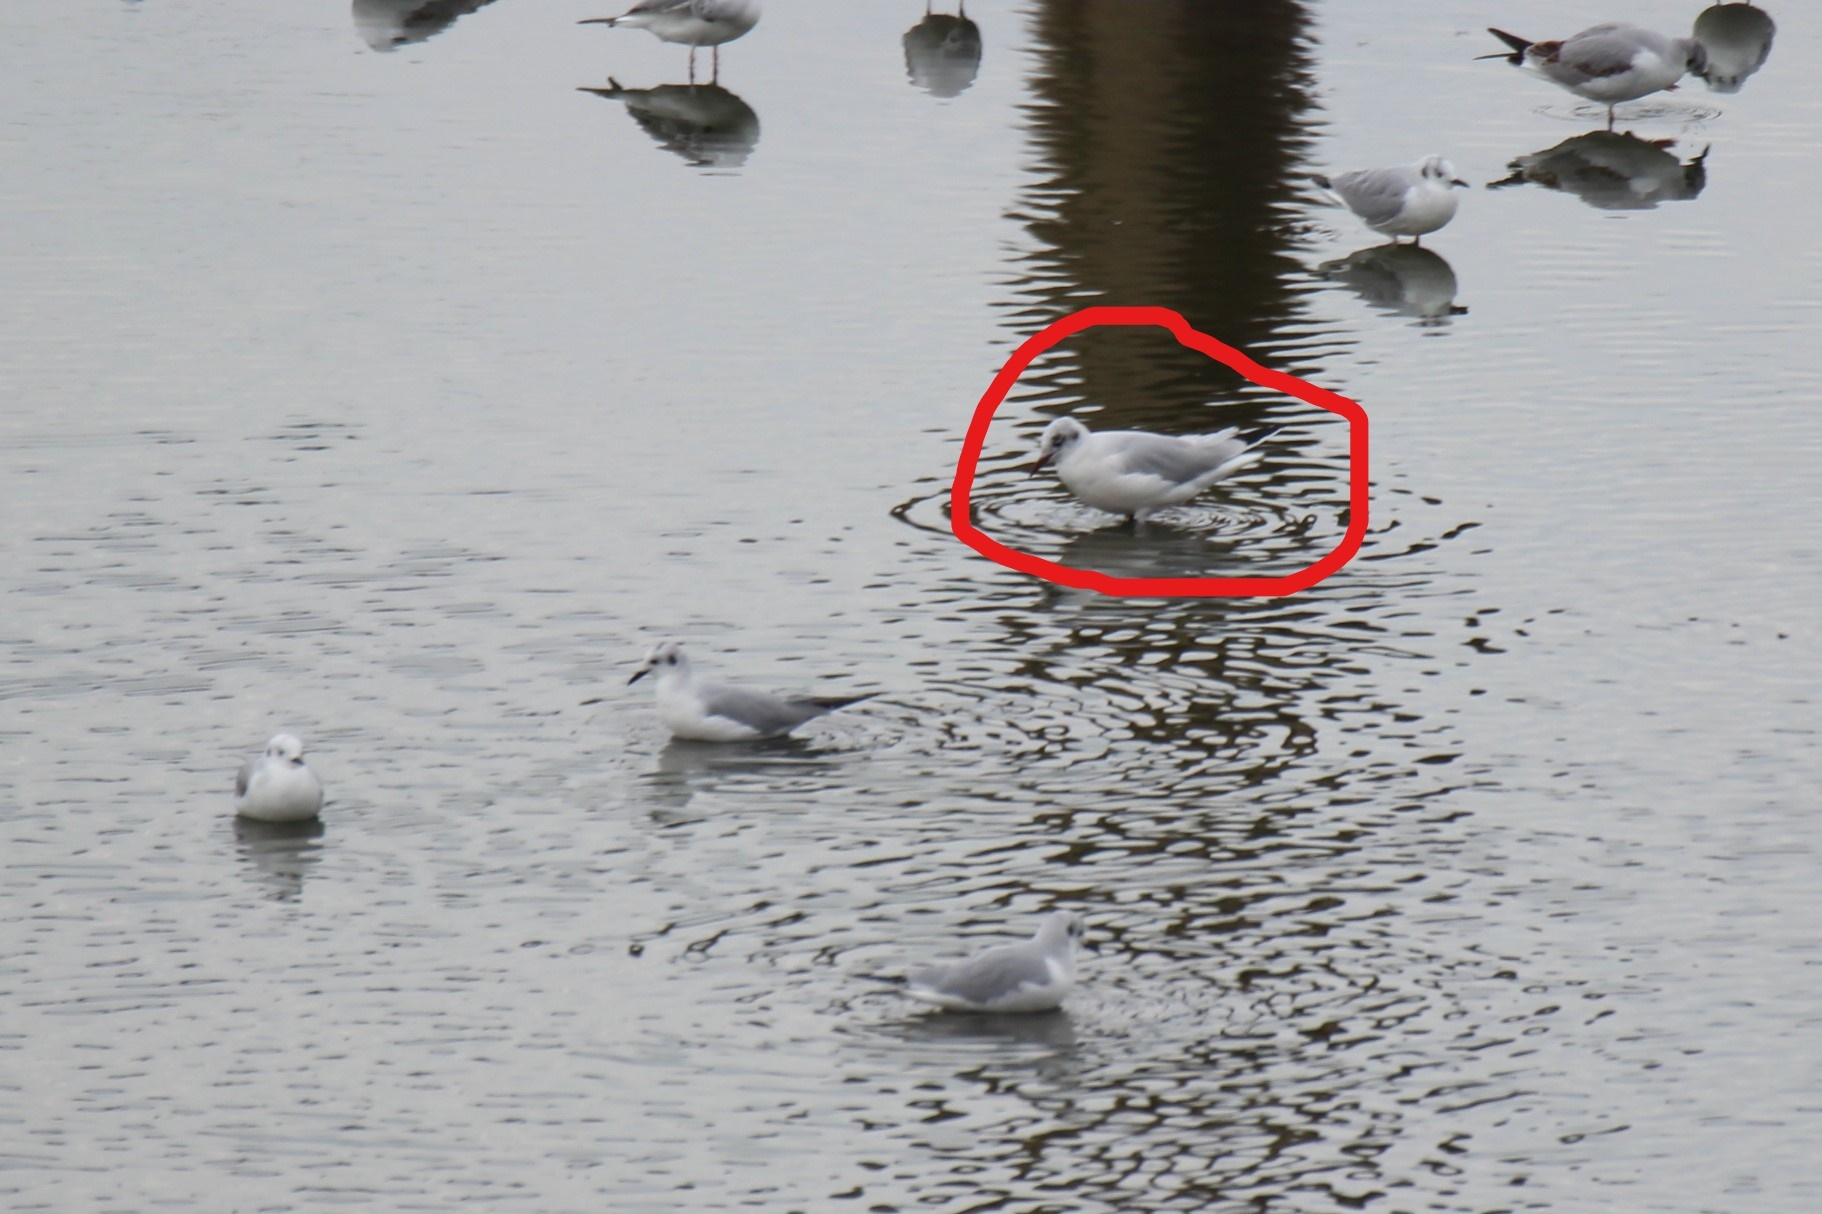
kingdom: Animalia
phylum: Chordata
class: Aves
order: Charadriiformes
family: Laridae
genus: Chroicocephalus
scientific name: Chroicocephalus ridibundus
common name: Black-headed gull
